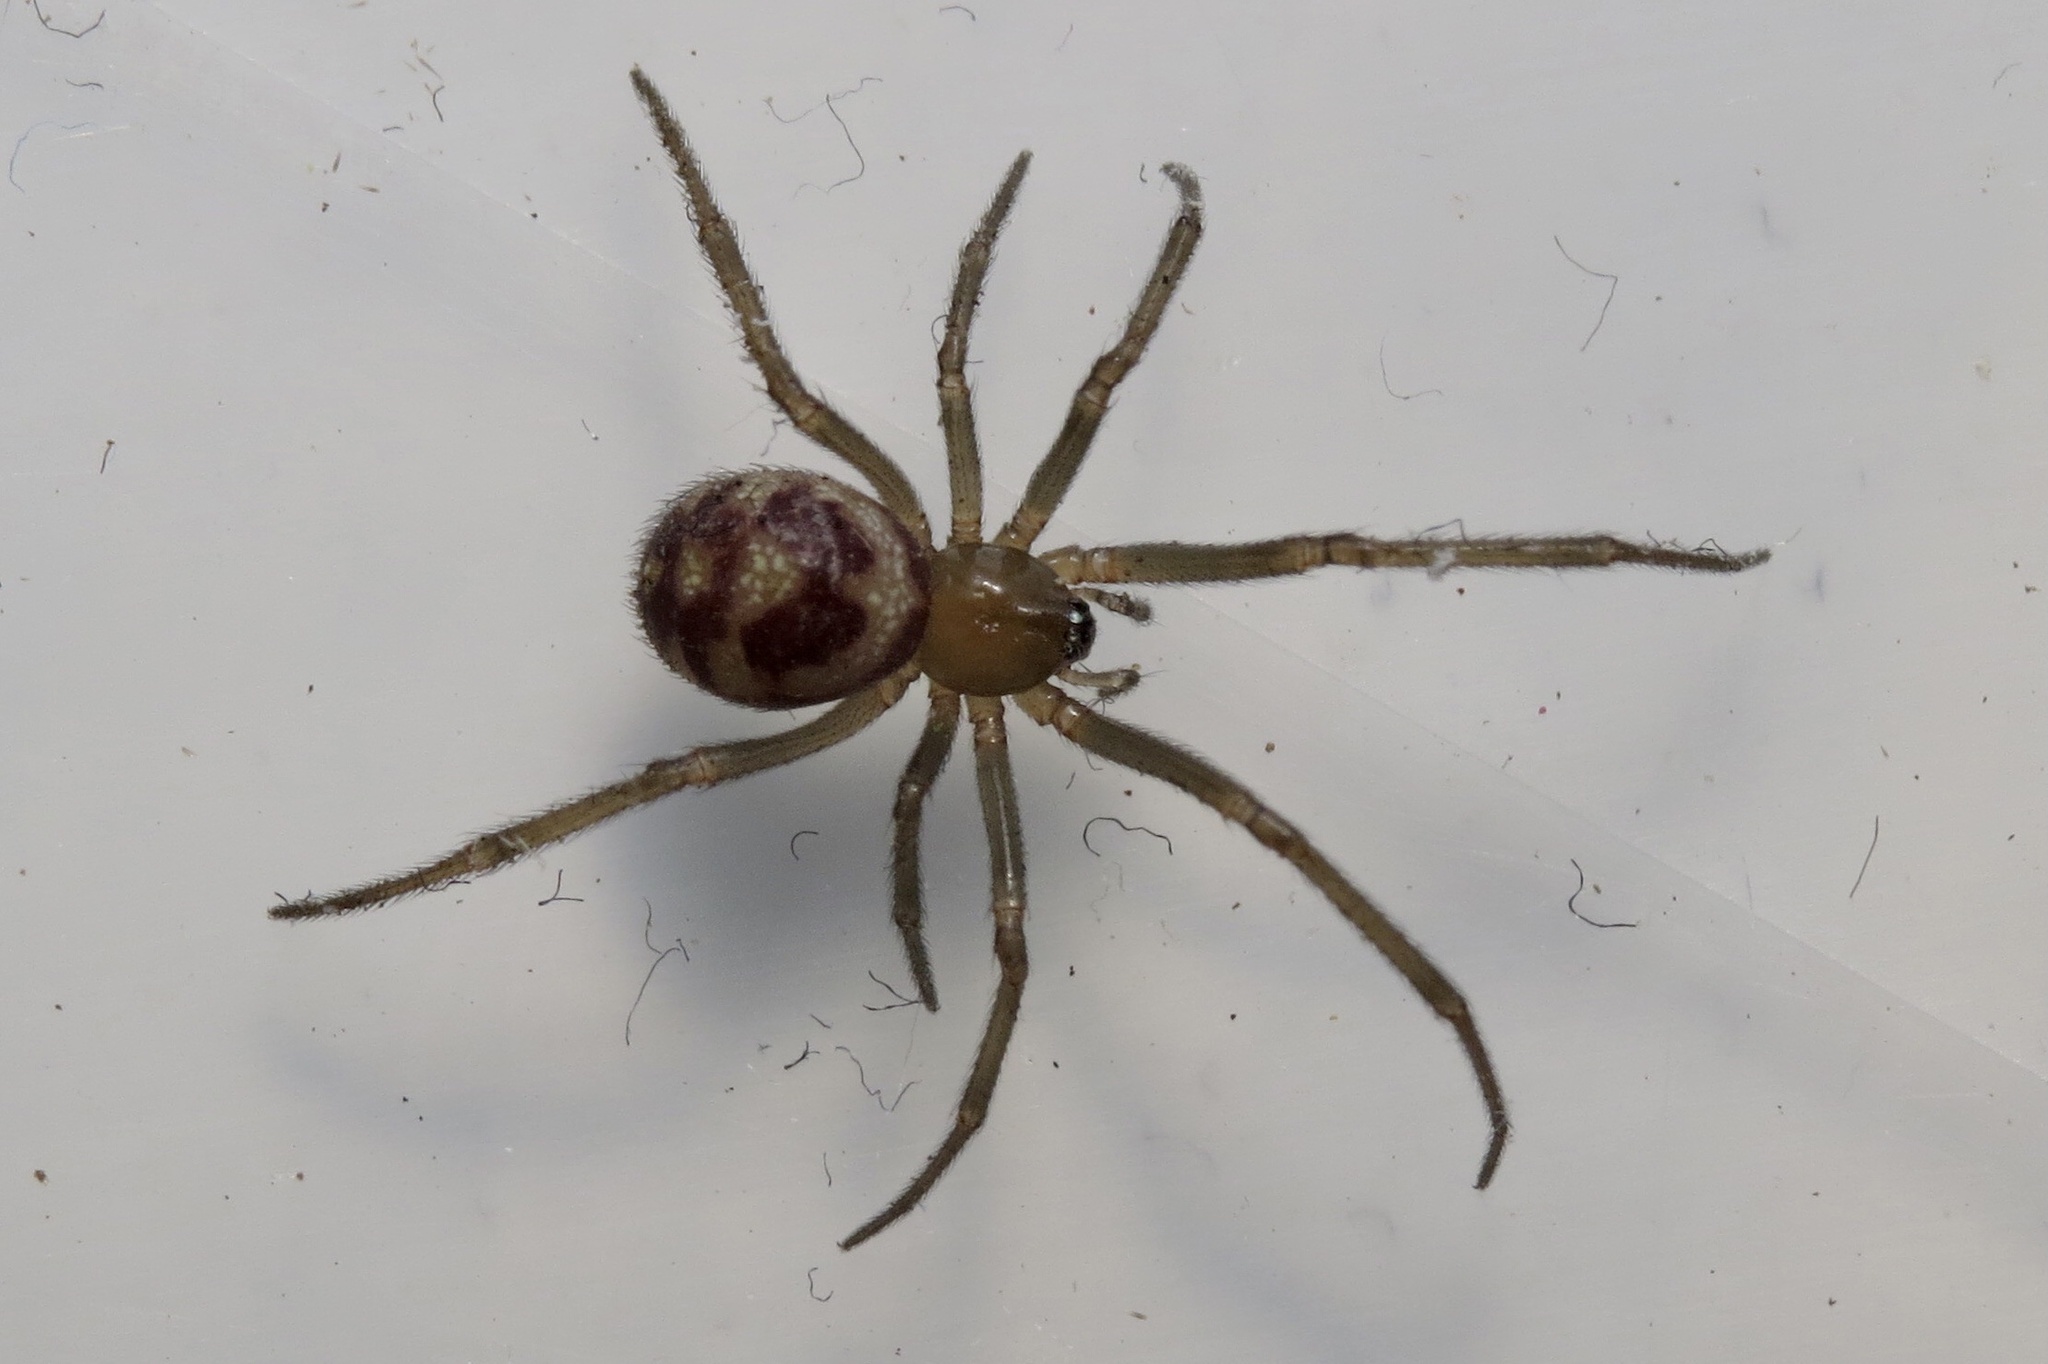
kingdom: Animalia
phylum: Arthropoda
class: Arachnida
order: Araneae
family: Theridiidae
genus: Steatoda
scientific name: Steatoda grossa
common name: False black widow
